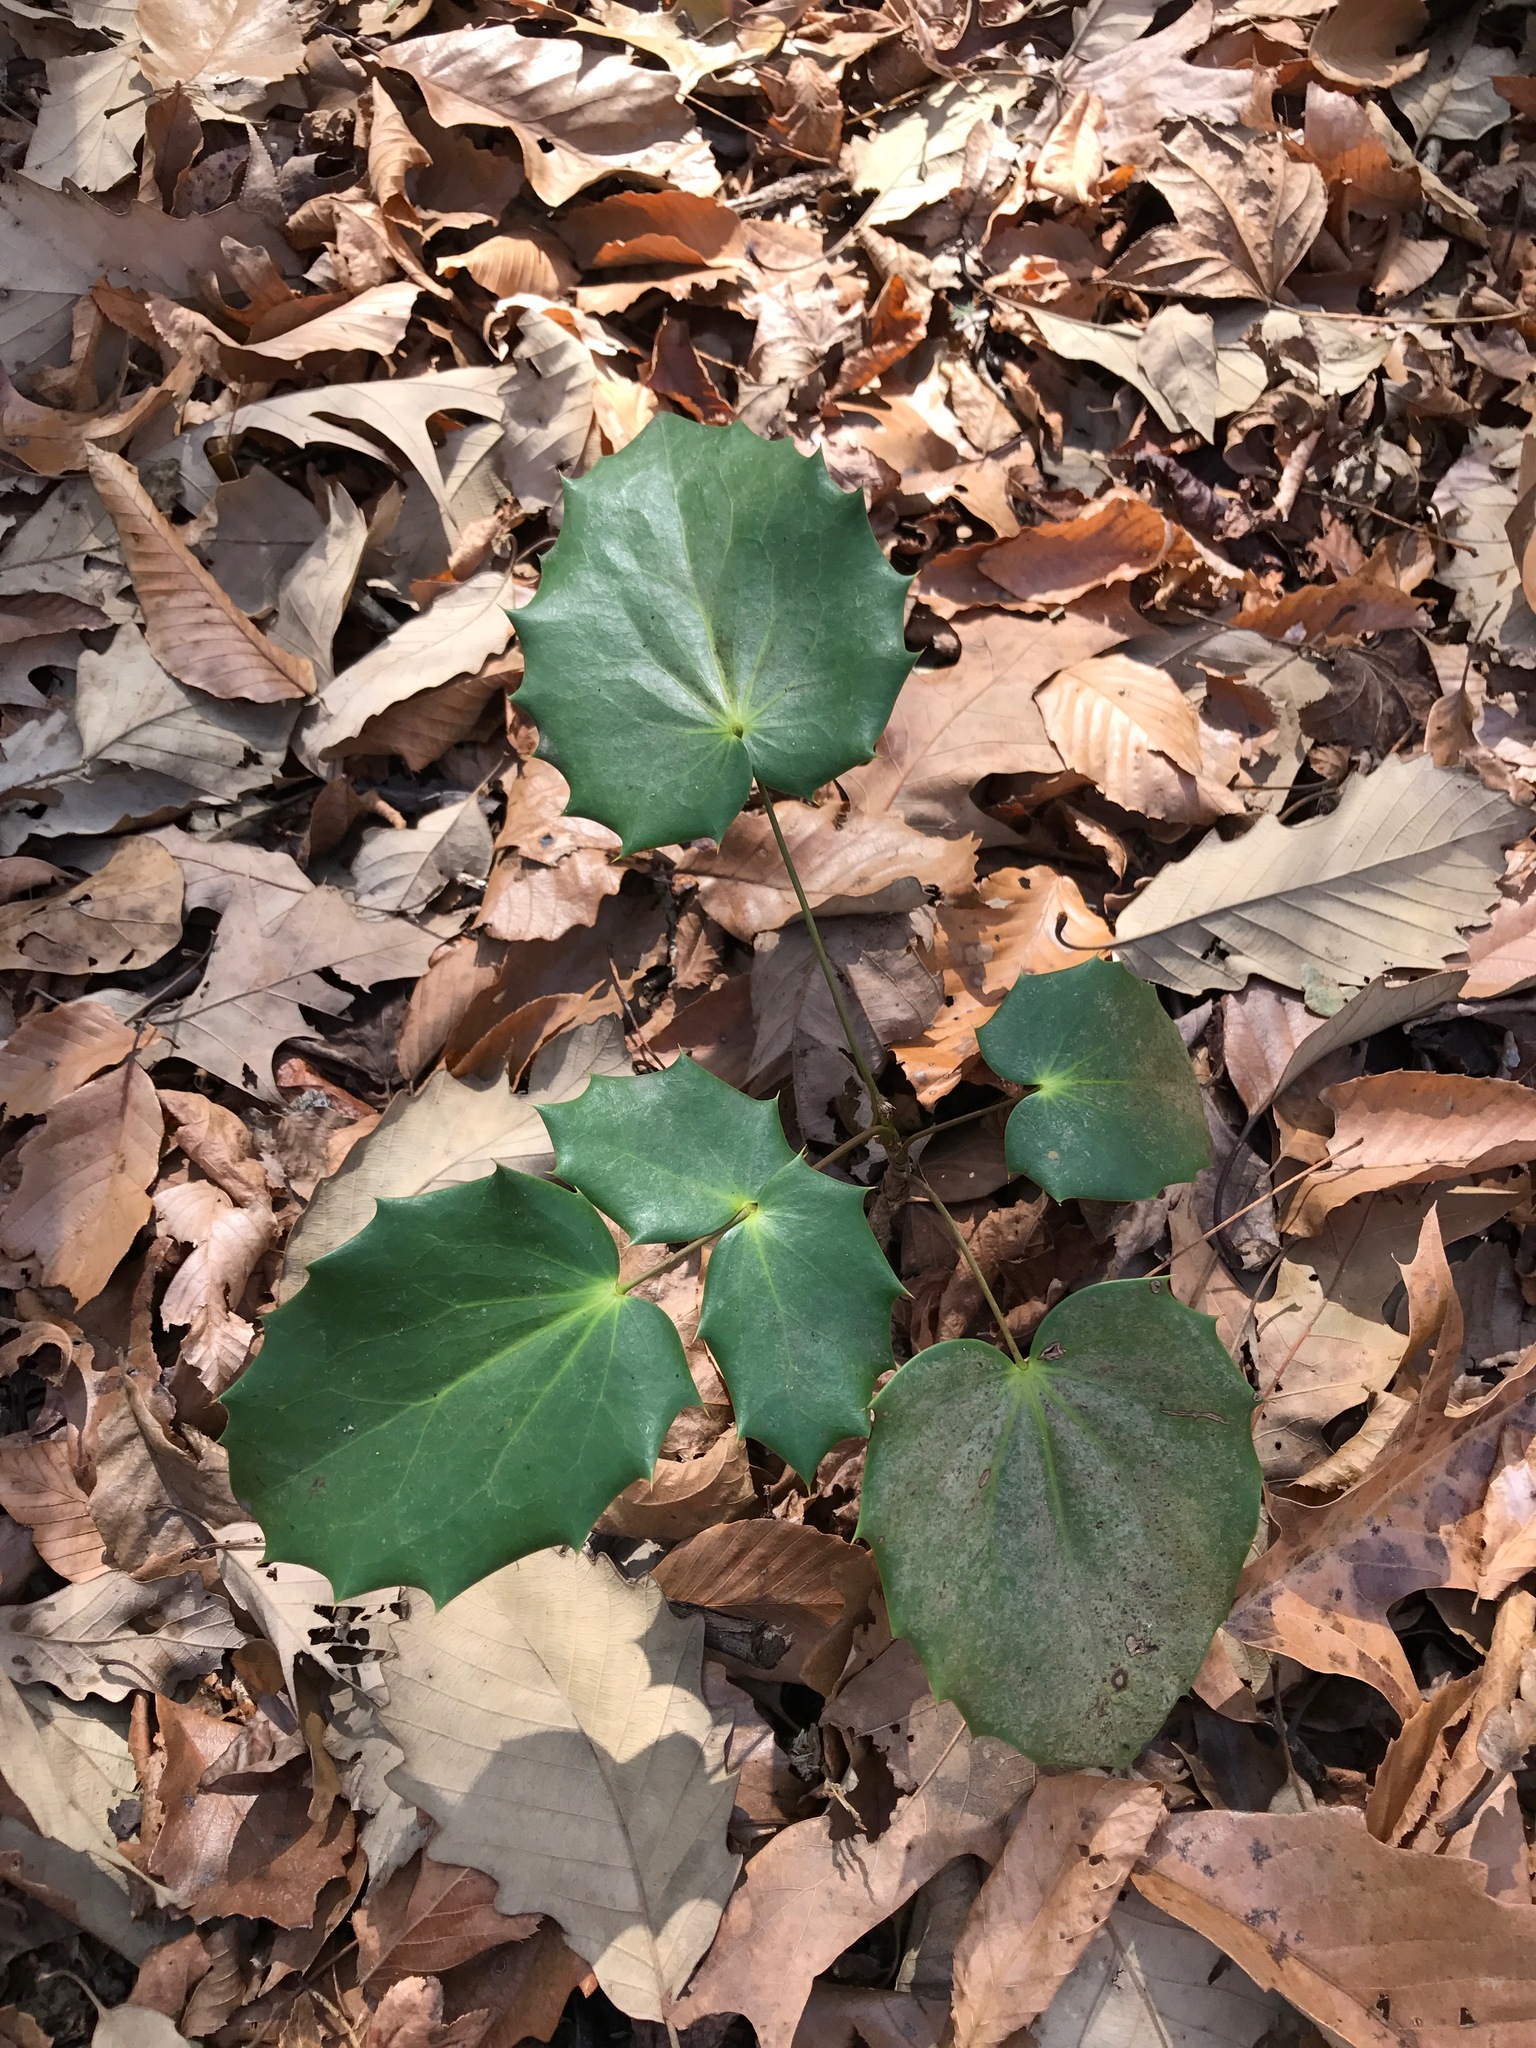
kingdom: Plantae
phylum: Tracheophyta
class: Magnoliopsida
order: Ranunculales
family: Berberidaceae
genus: Mahonia
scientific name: Mahonia bealei
